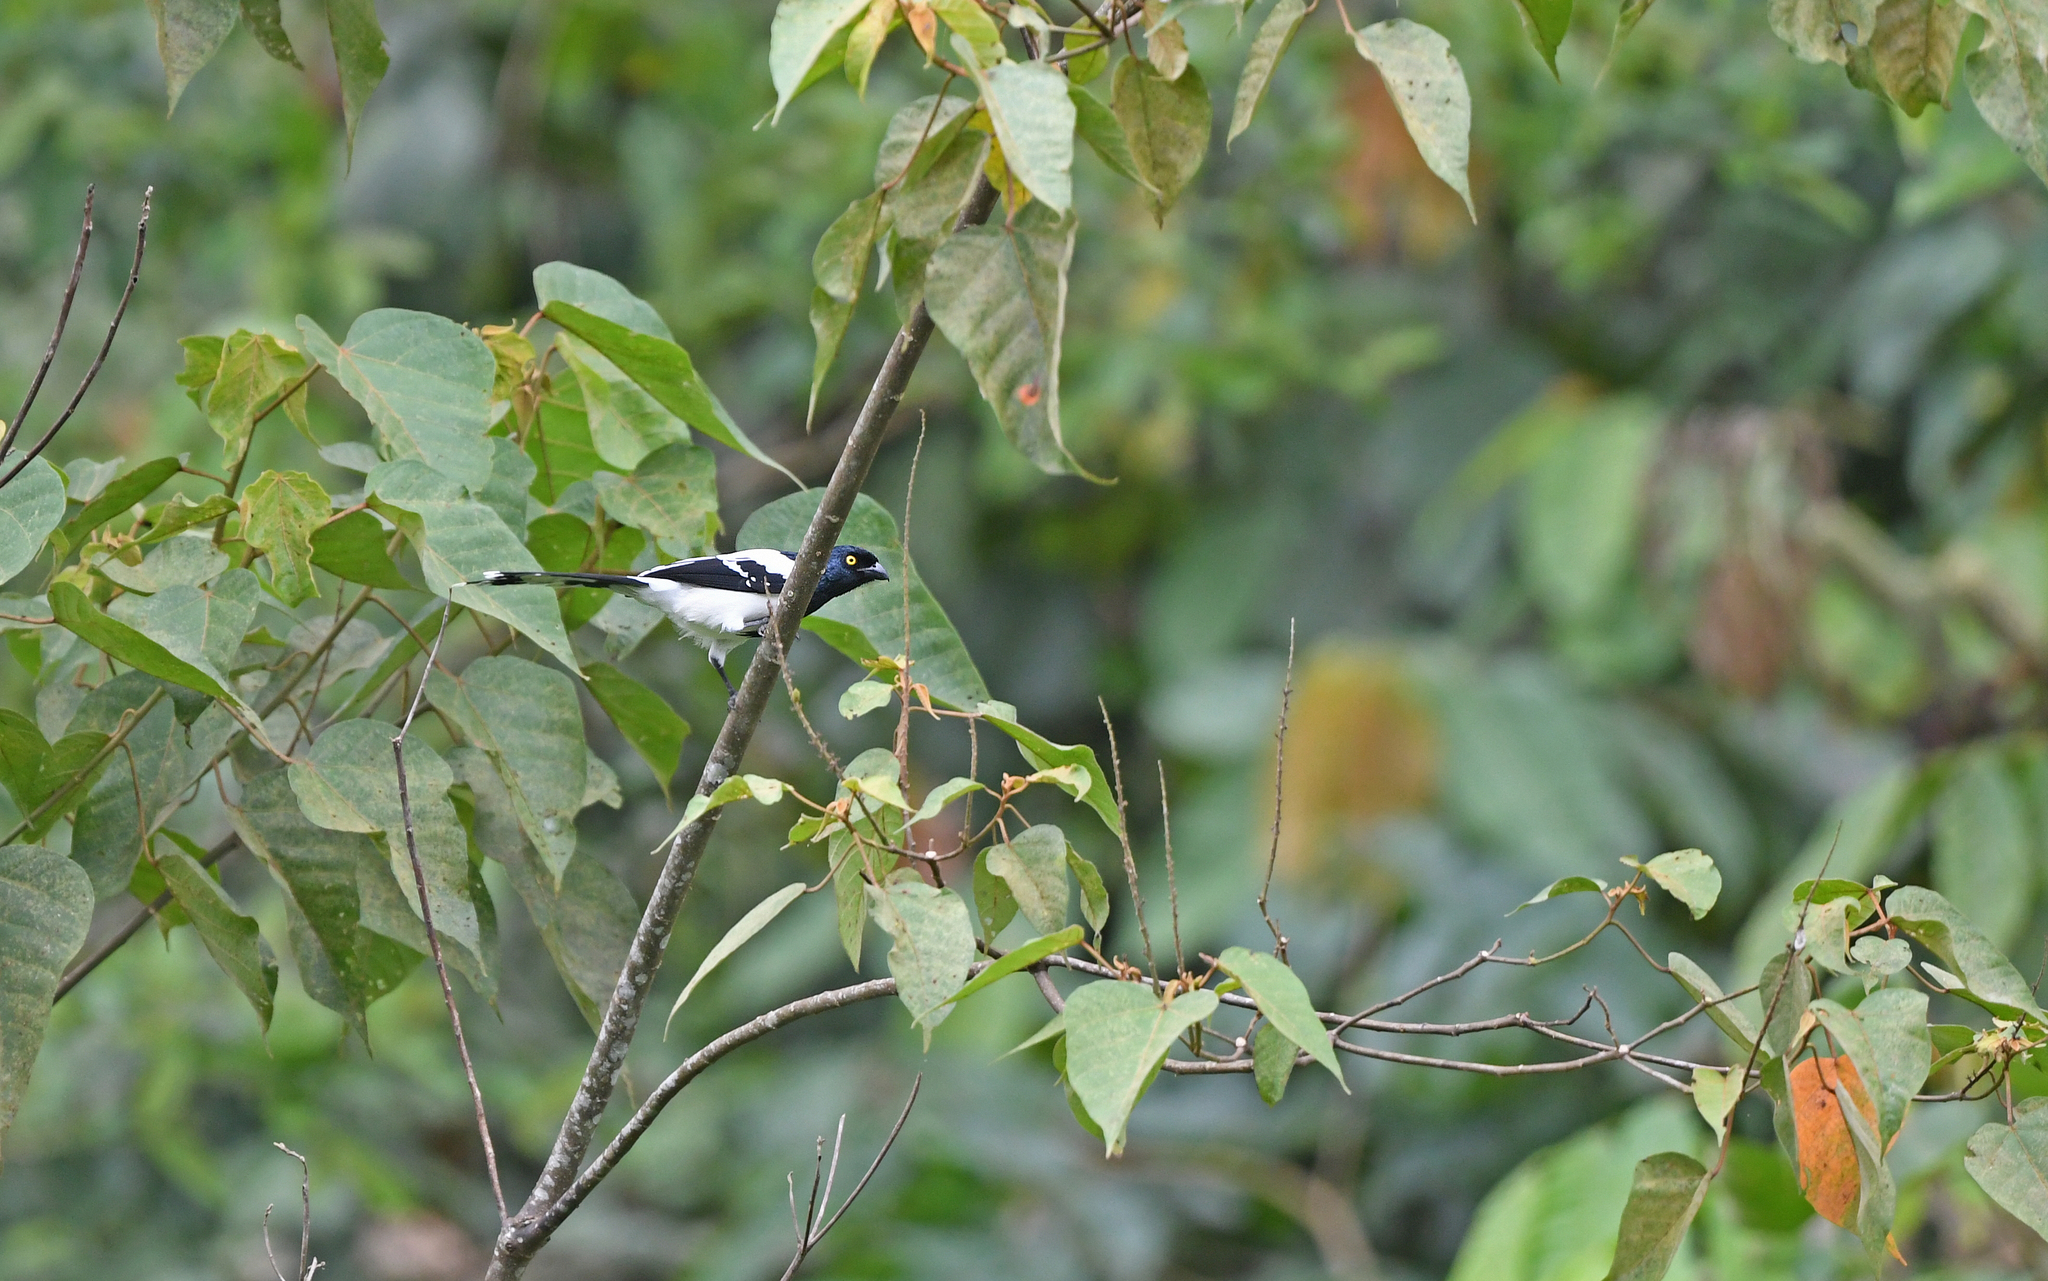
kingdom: Animalia
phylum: Chordata
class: Aves
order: Passeriformes
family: Thraupidae
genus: Cissopis
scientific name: Cissopis leverianus
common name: Magpie tanager
